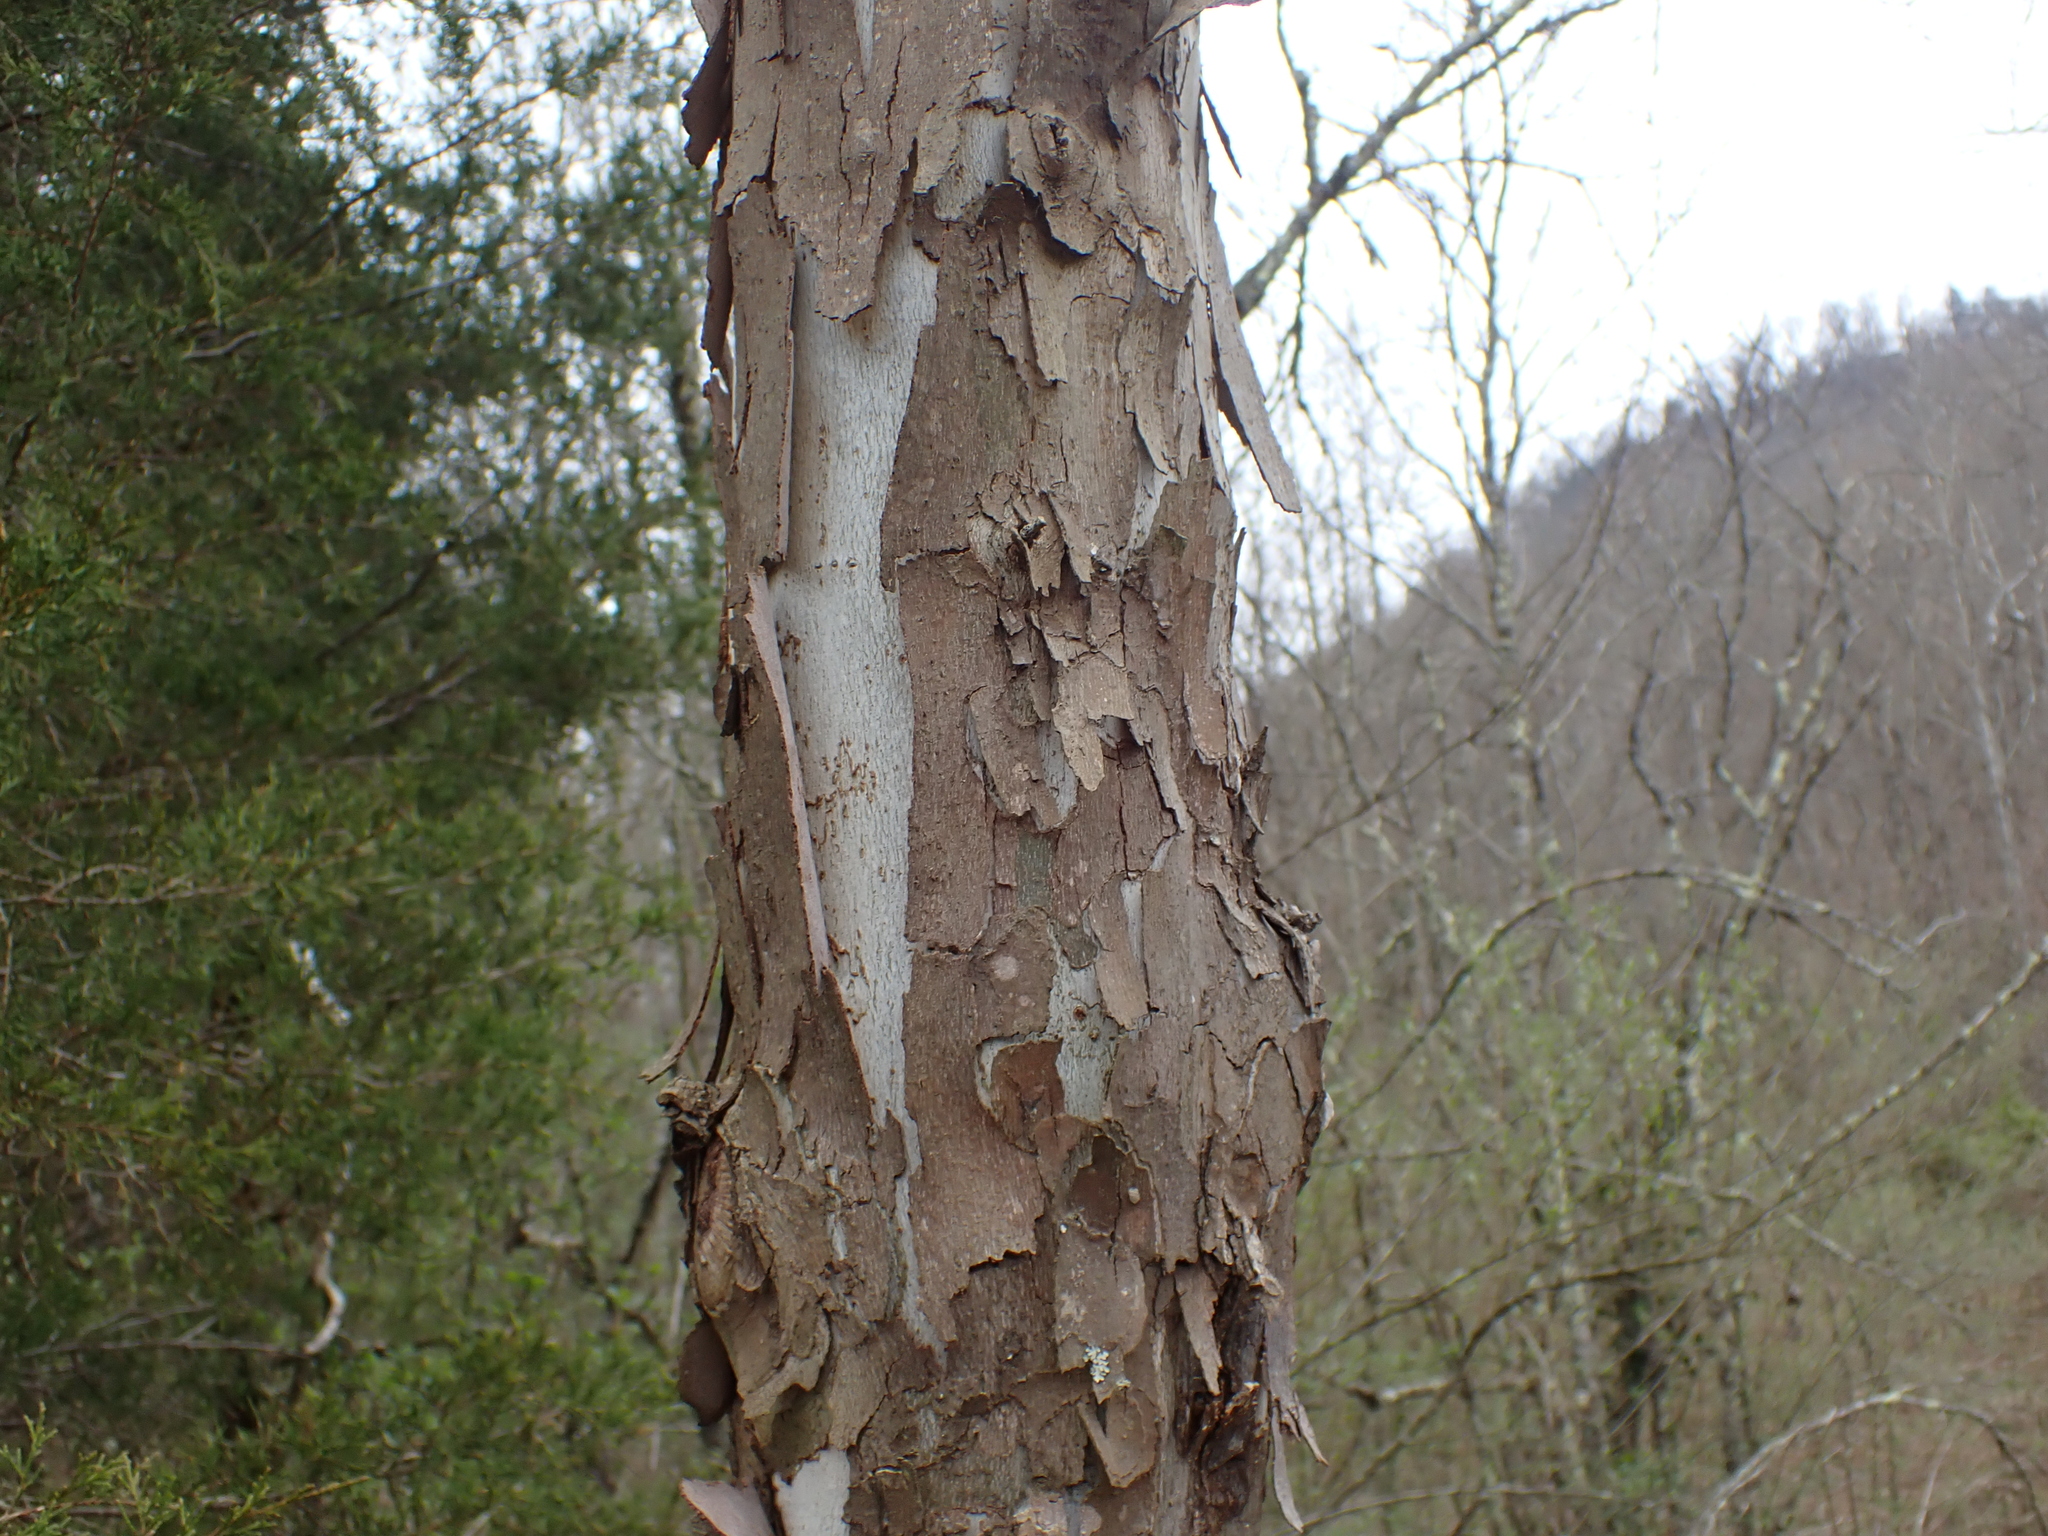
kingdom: Plantae
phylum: Tracheophyta
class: Magnoliopsida
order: Proteales
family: Platanaceae
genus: Platanus
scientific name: Platanus occidentalis
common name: American sycamore
